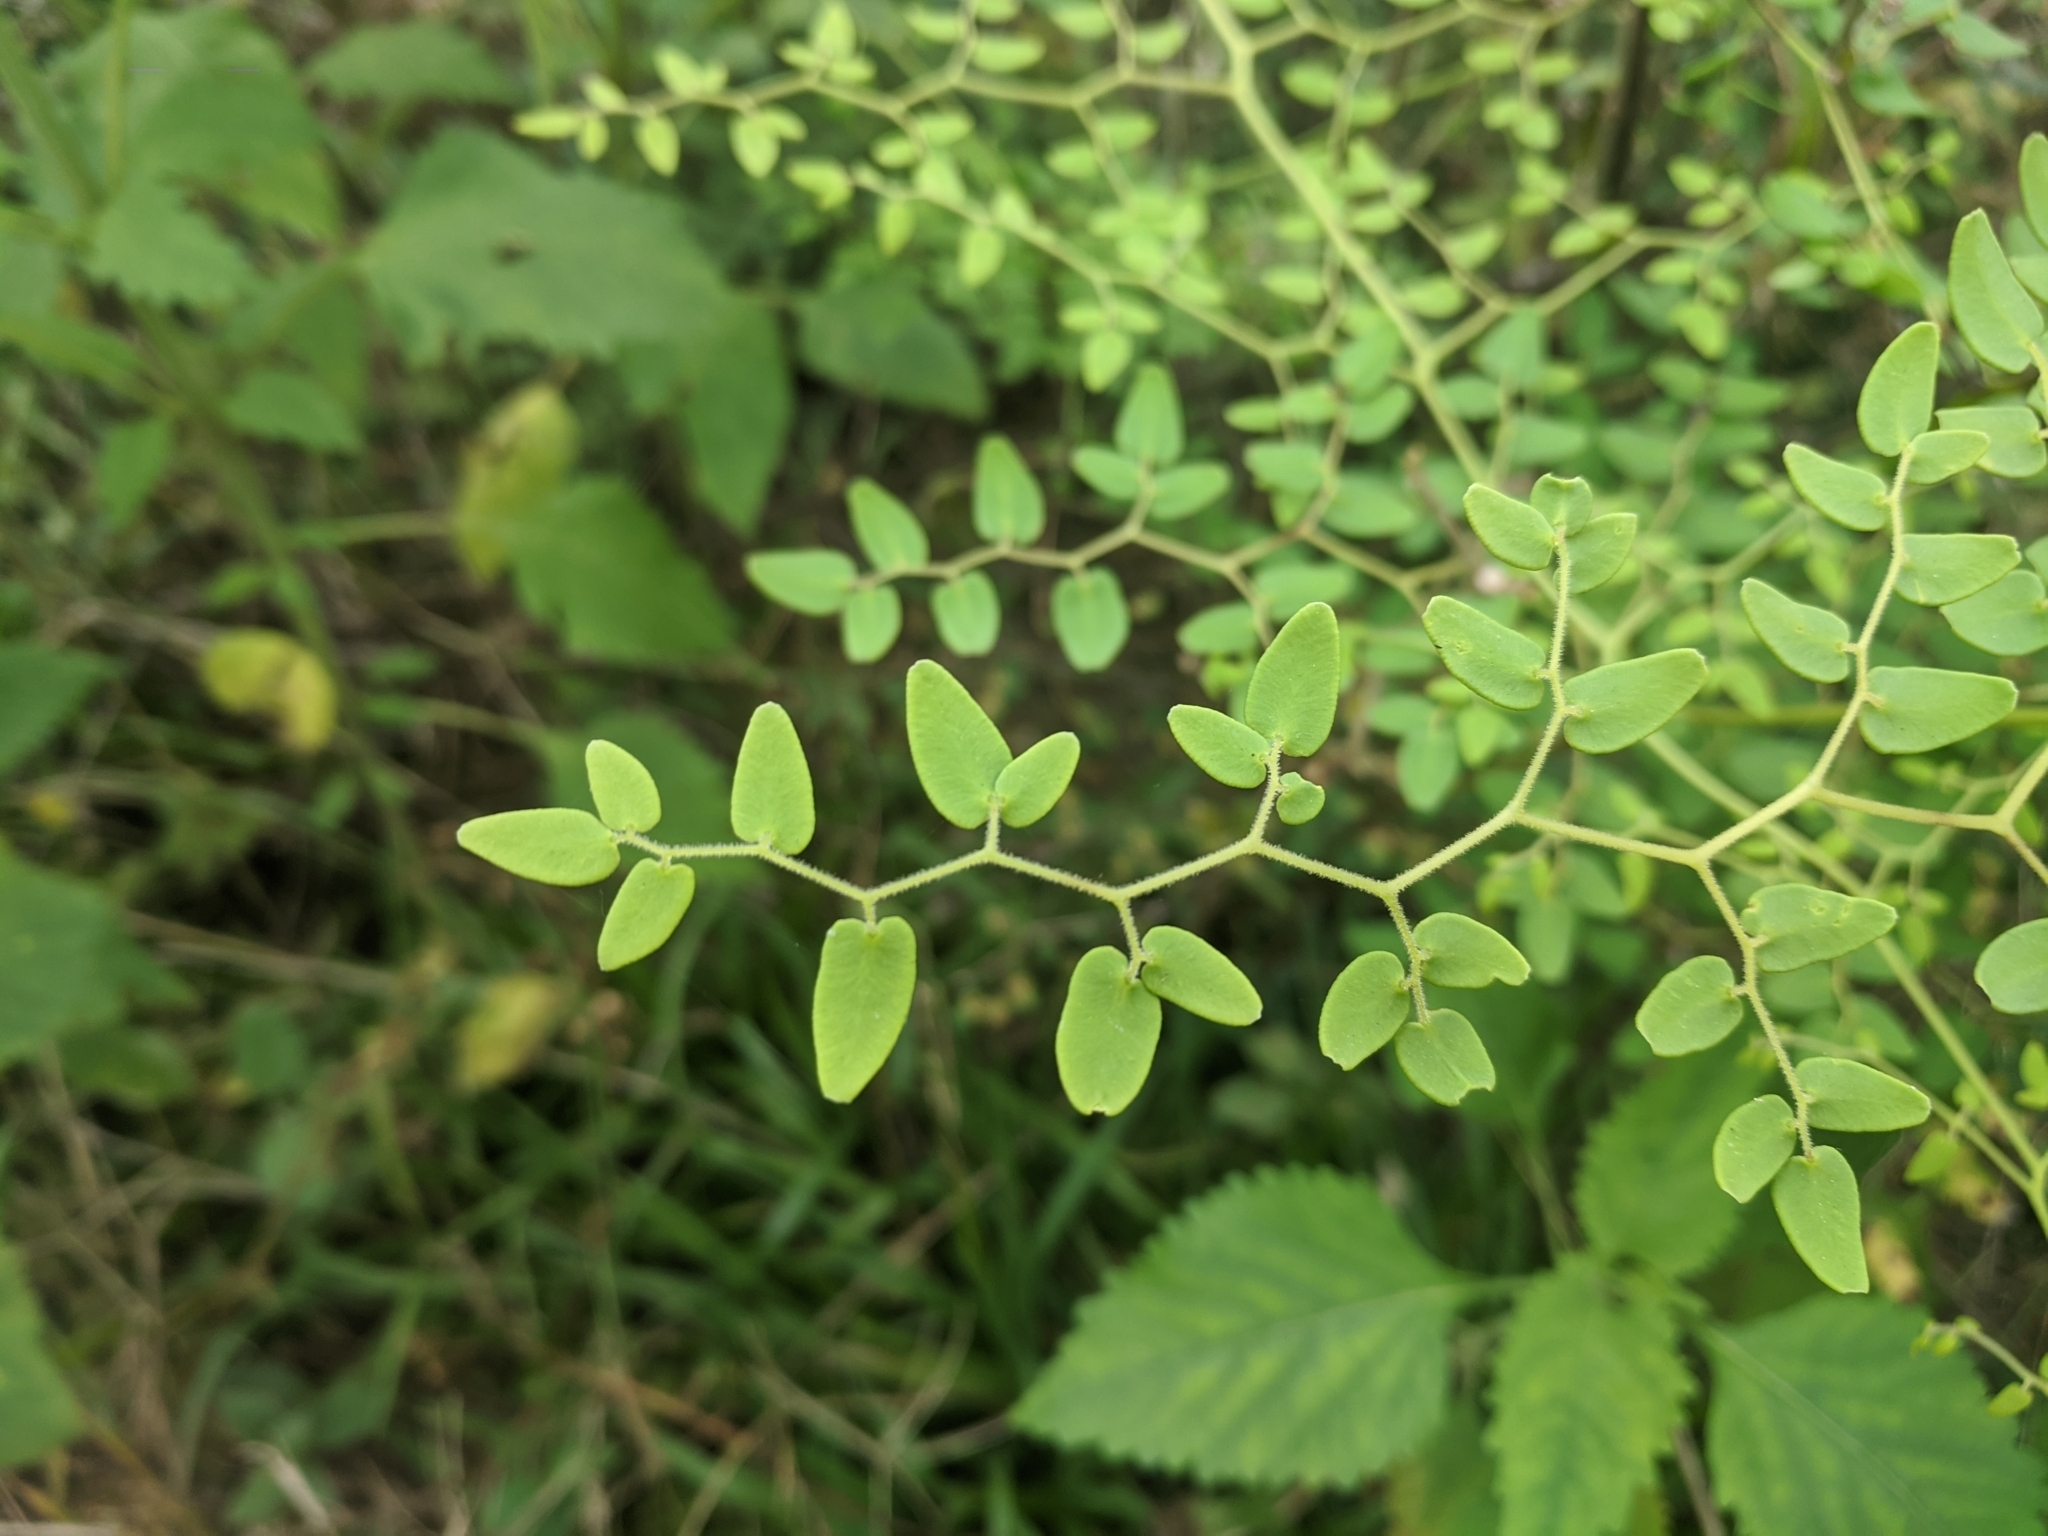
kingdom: Plantae
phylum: Tracheophyta
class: Polypodiopsida
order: Polypodiales
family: Pteridaceae
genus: Pellaea
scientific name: Pellaea ovata
